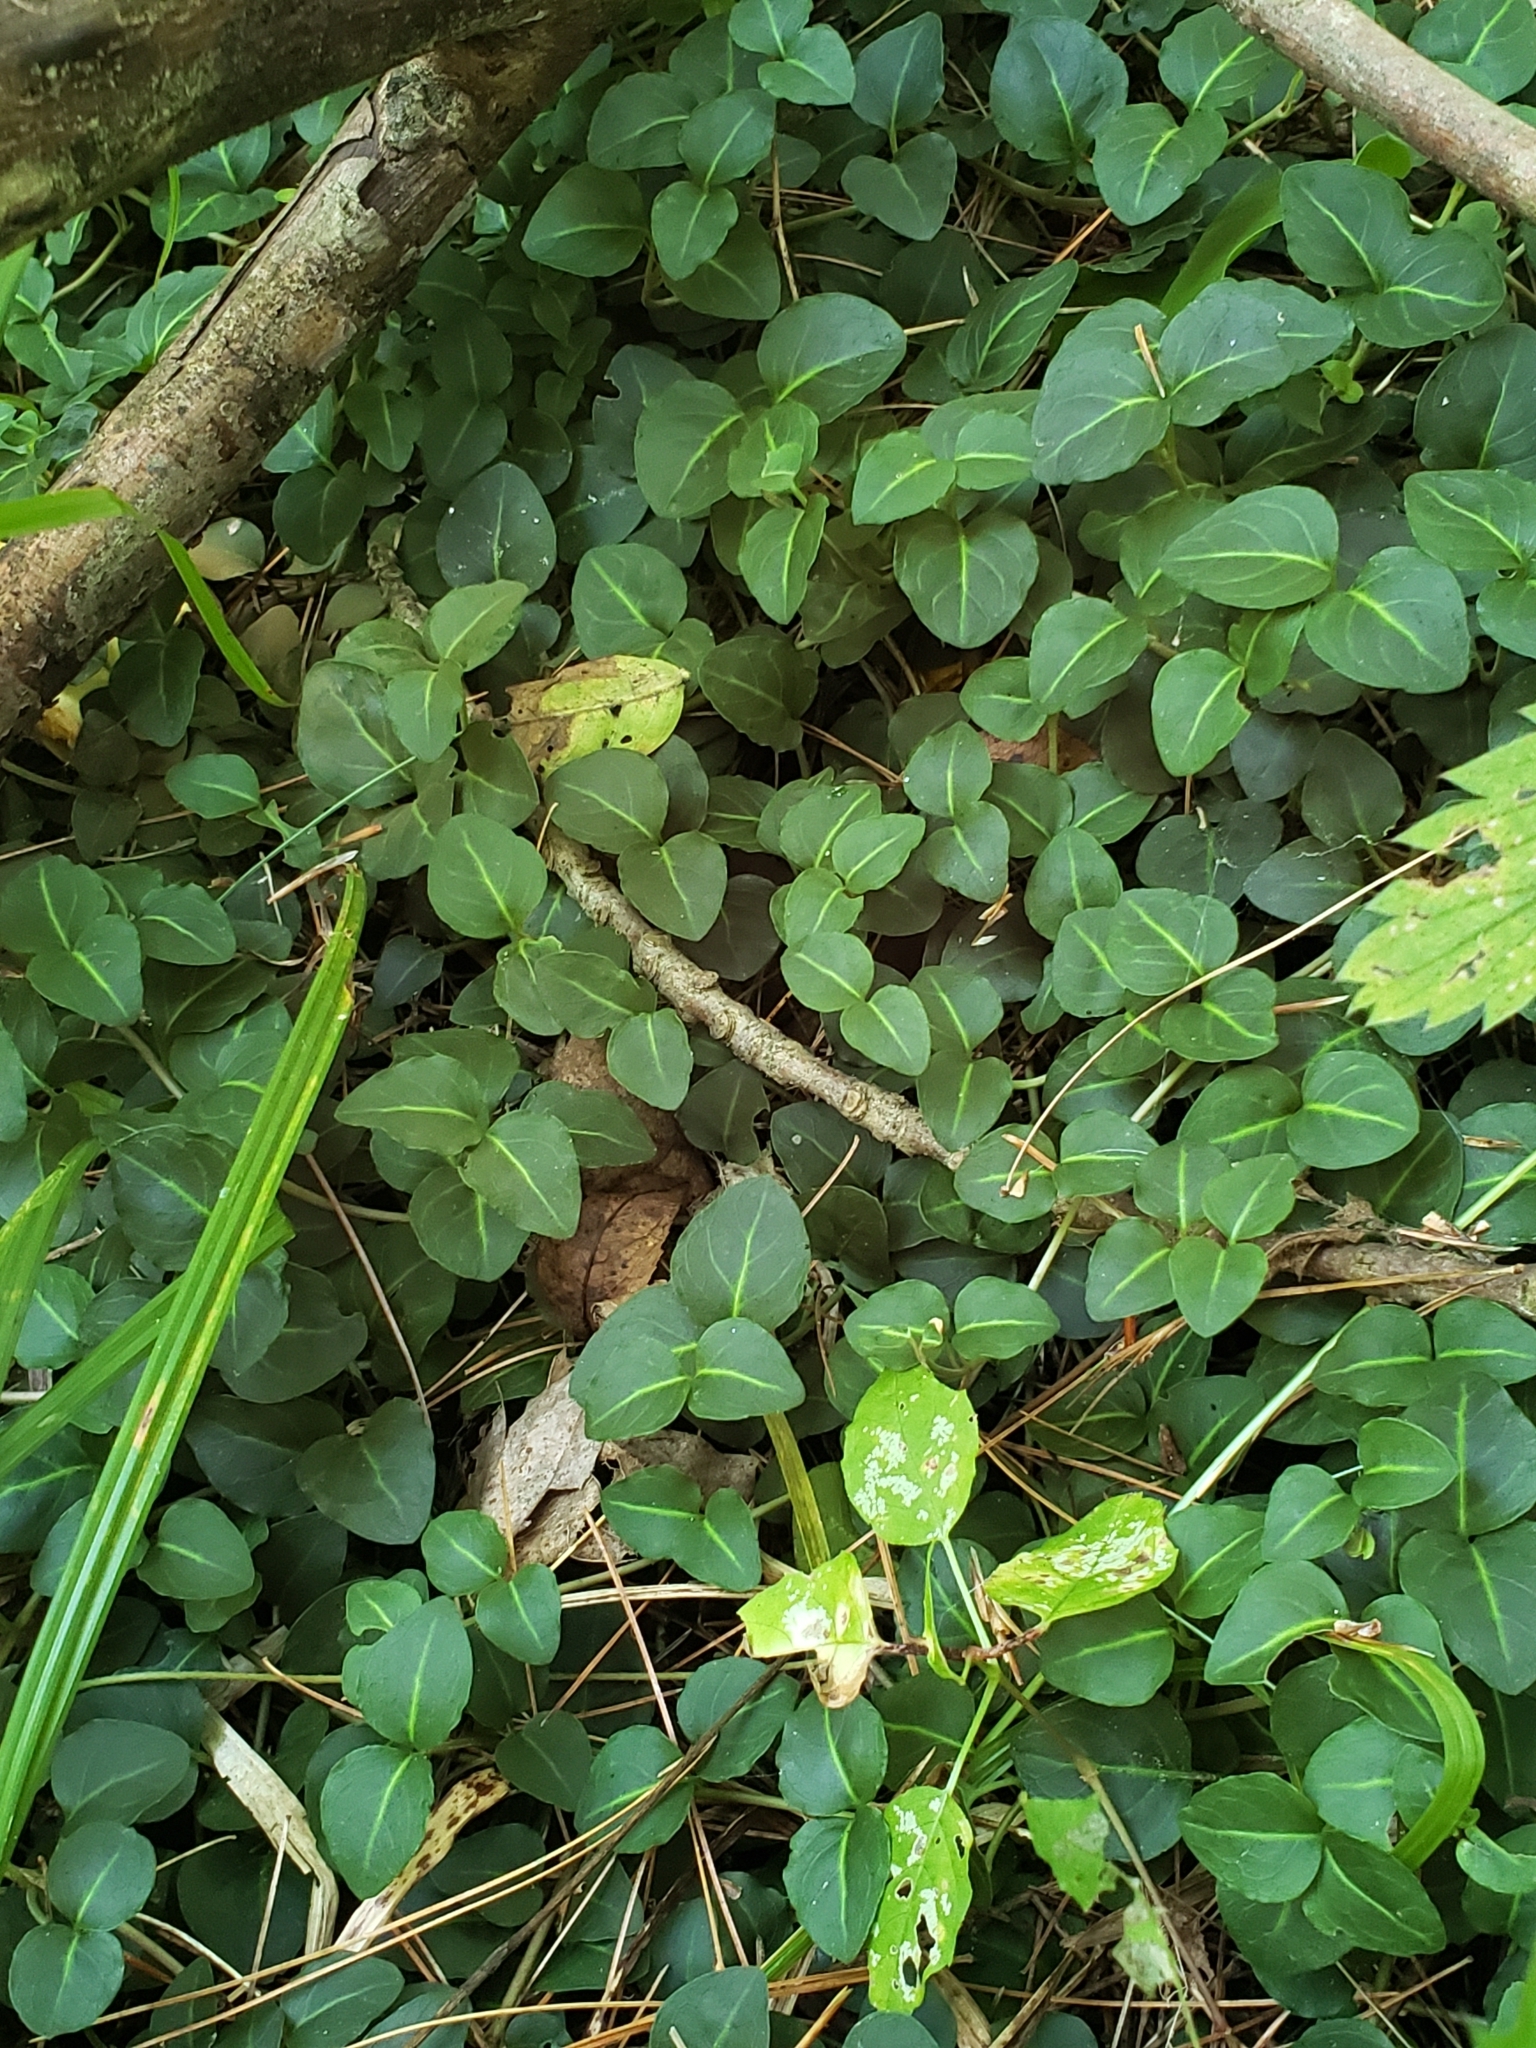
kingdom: Plantae
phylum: Tracheophyta
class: Magnoliopsida
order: Gentianales
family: Rubiaceae
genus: Mitchella
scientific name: Mitchella repens
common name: Partridge-berry
